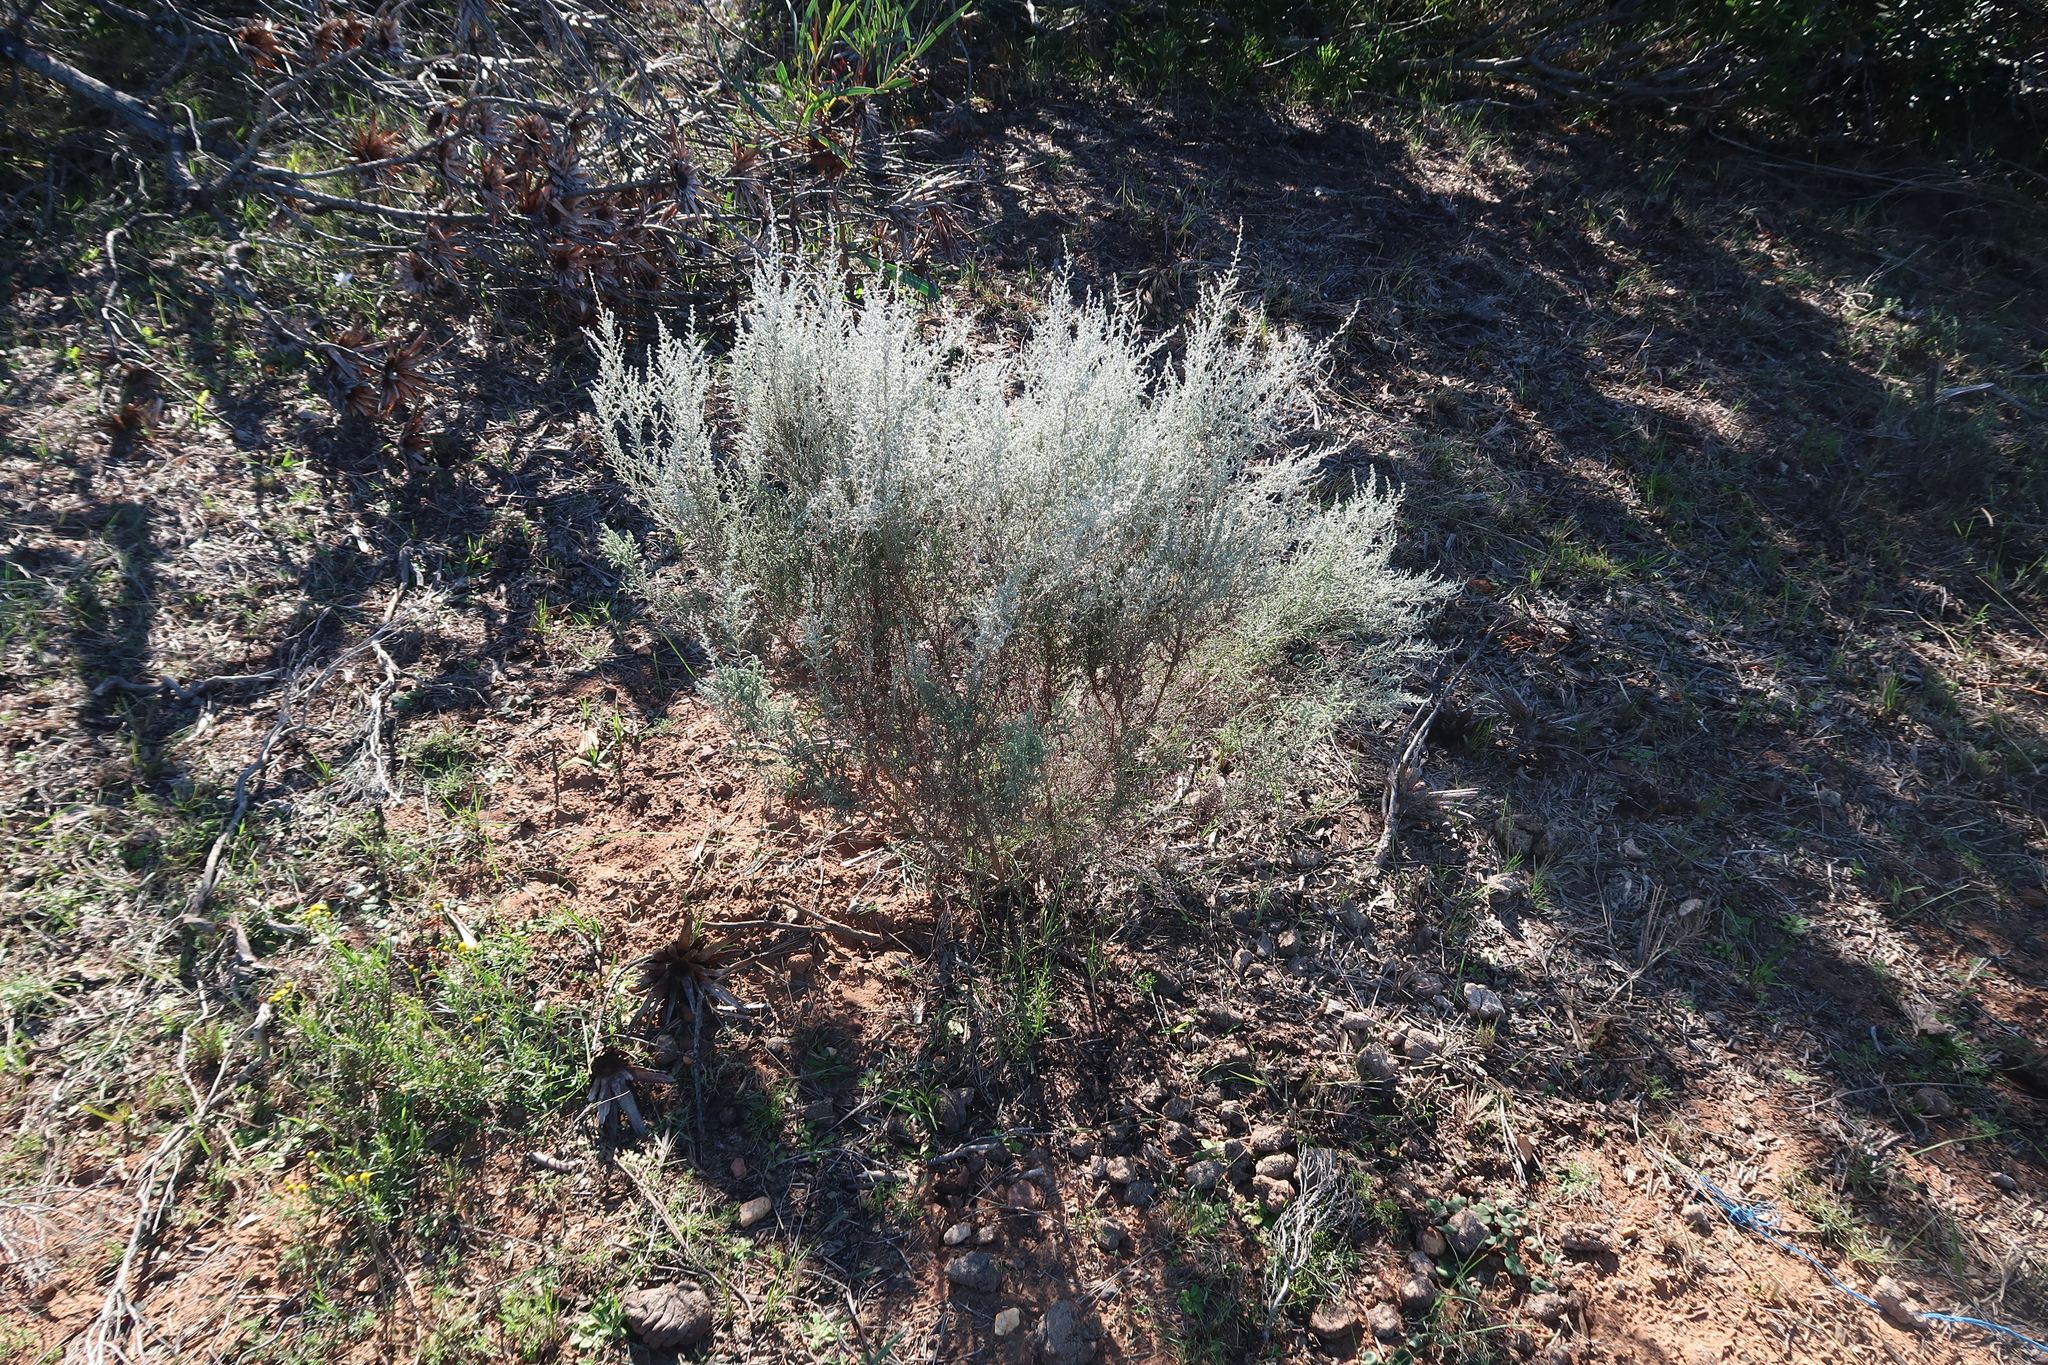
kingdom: Plantae
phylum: Tracheophyta
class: Magnoliopsida
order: Asterales
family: Asteraceae
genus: Seriphium
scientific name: Seriphium plumosum
